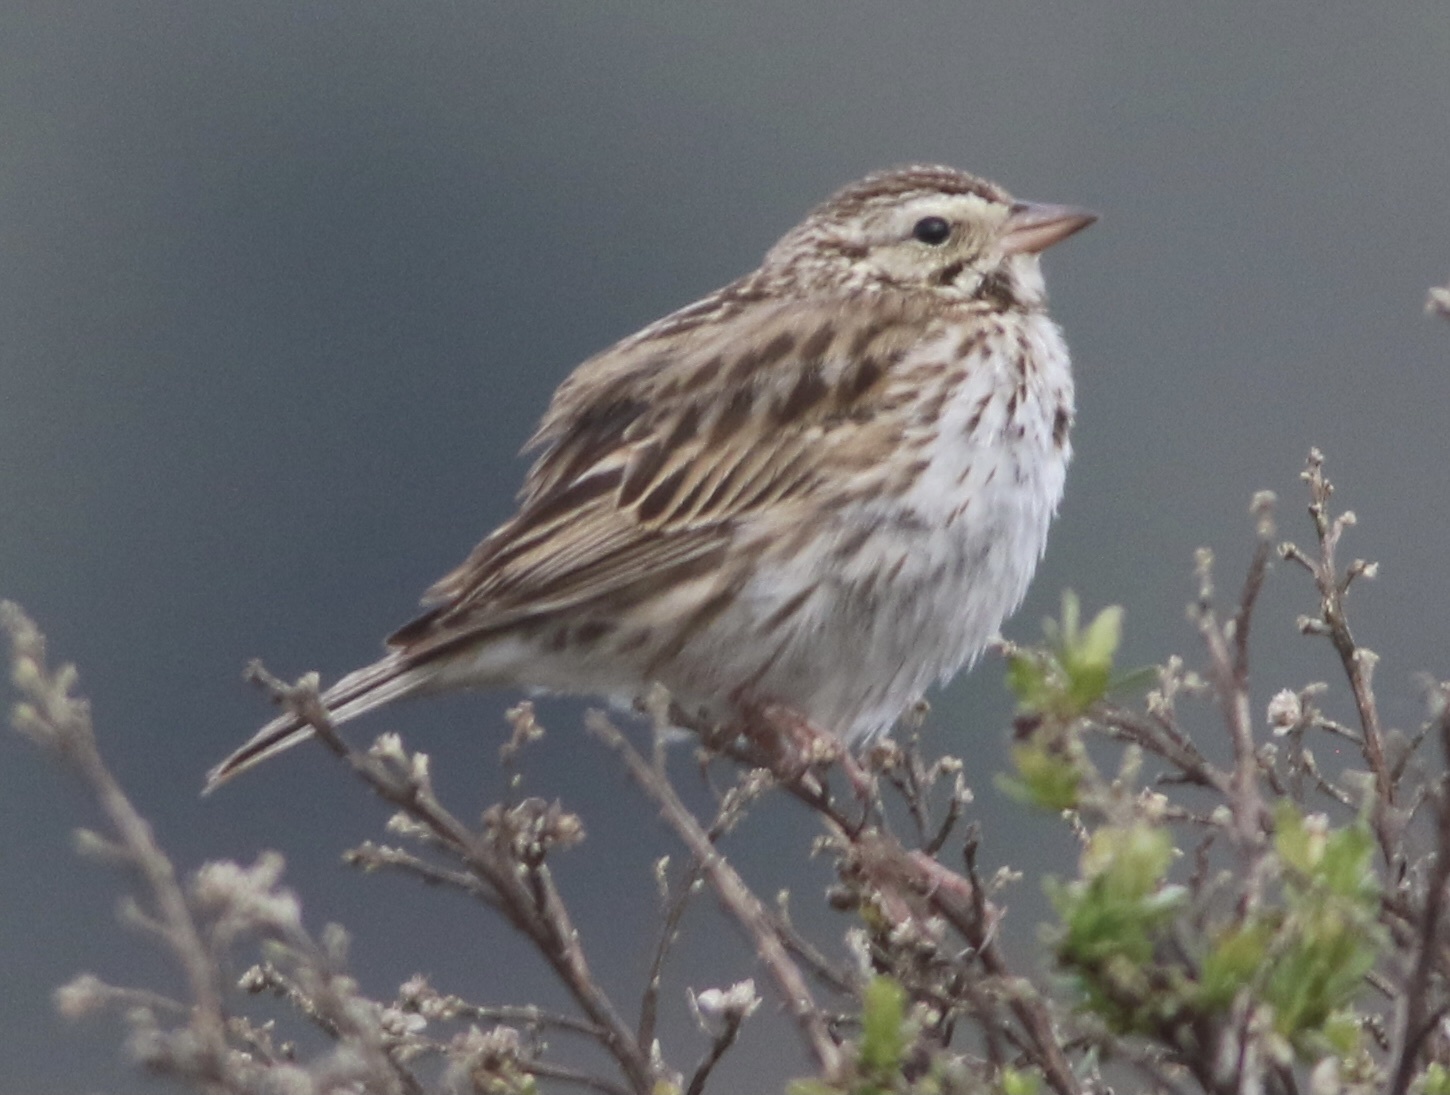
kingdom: Animalia
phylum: Chordata
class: Aves
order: Passeriformes
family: Passerellidae
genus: Passerculus
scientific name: Passerculus sandwichensis
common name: Savannah sparrow
